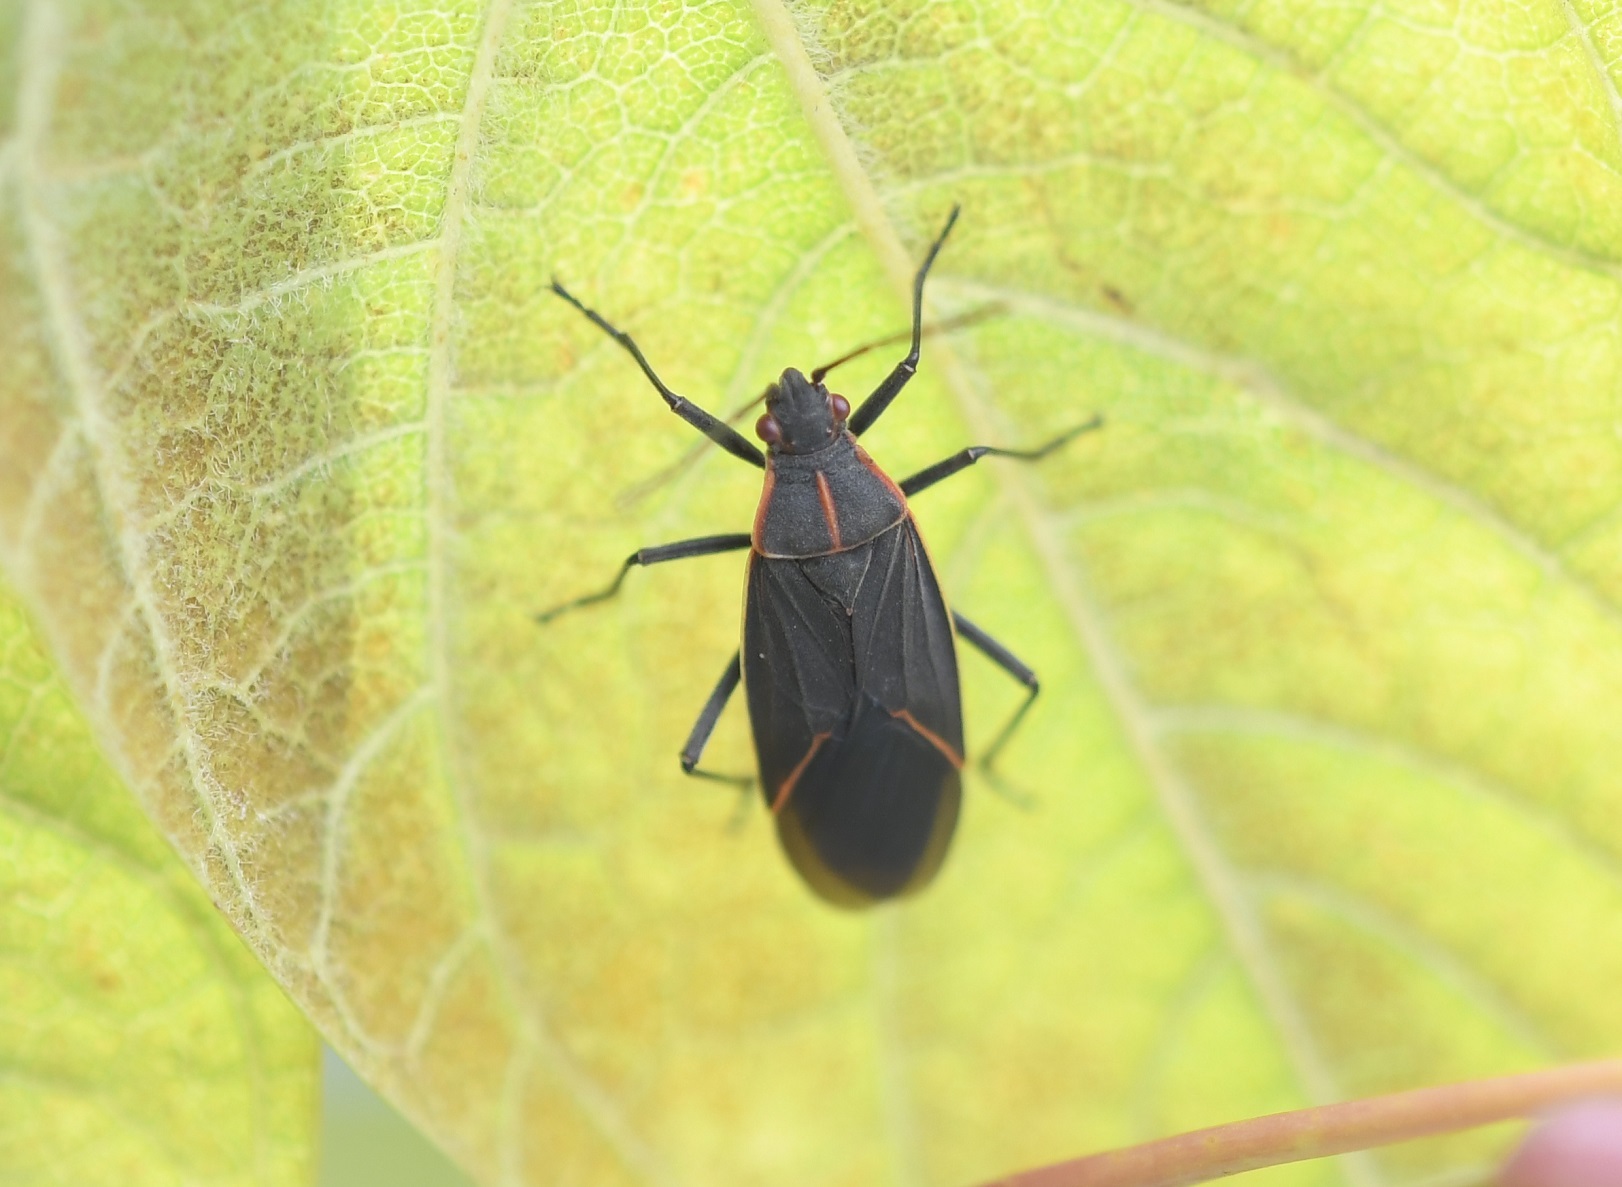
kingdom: Animalia
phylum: Arthropoda
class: Insecta
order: Hemiptera
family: Rhopalidae
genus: Boisea
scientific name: Boisea trivittata
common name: Boxelder bug
